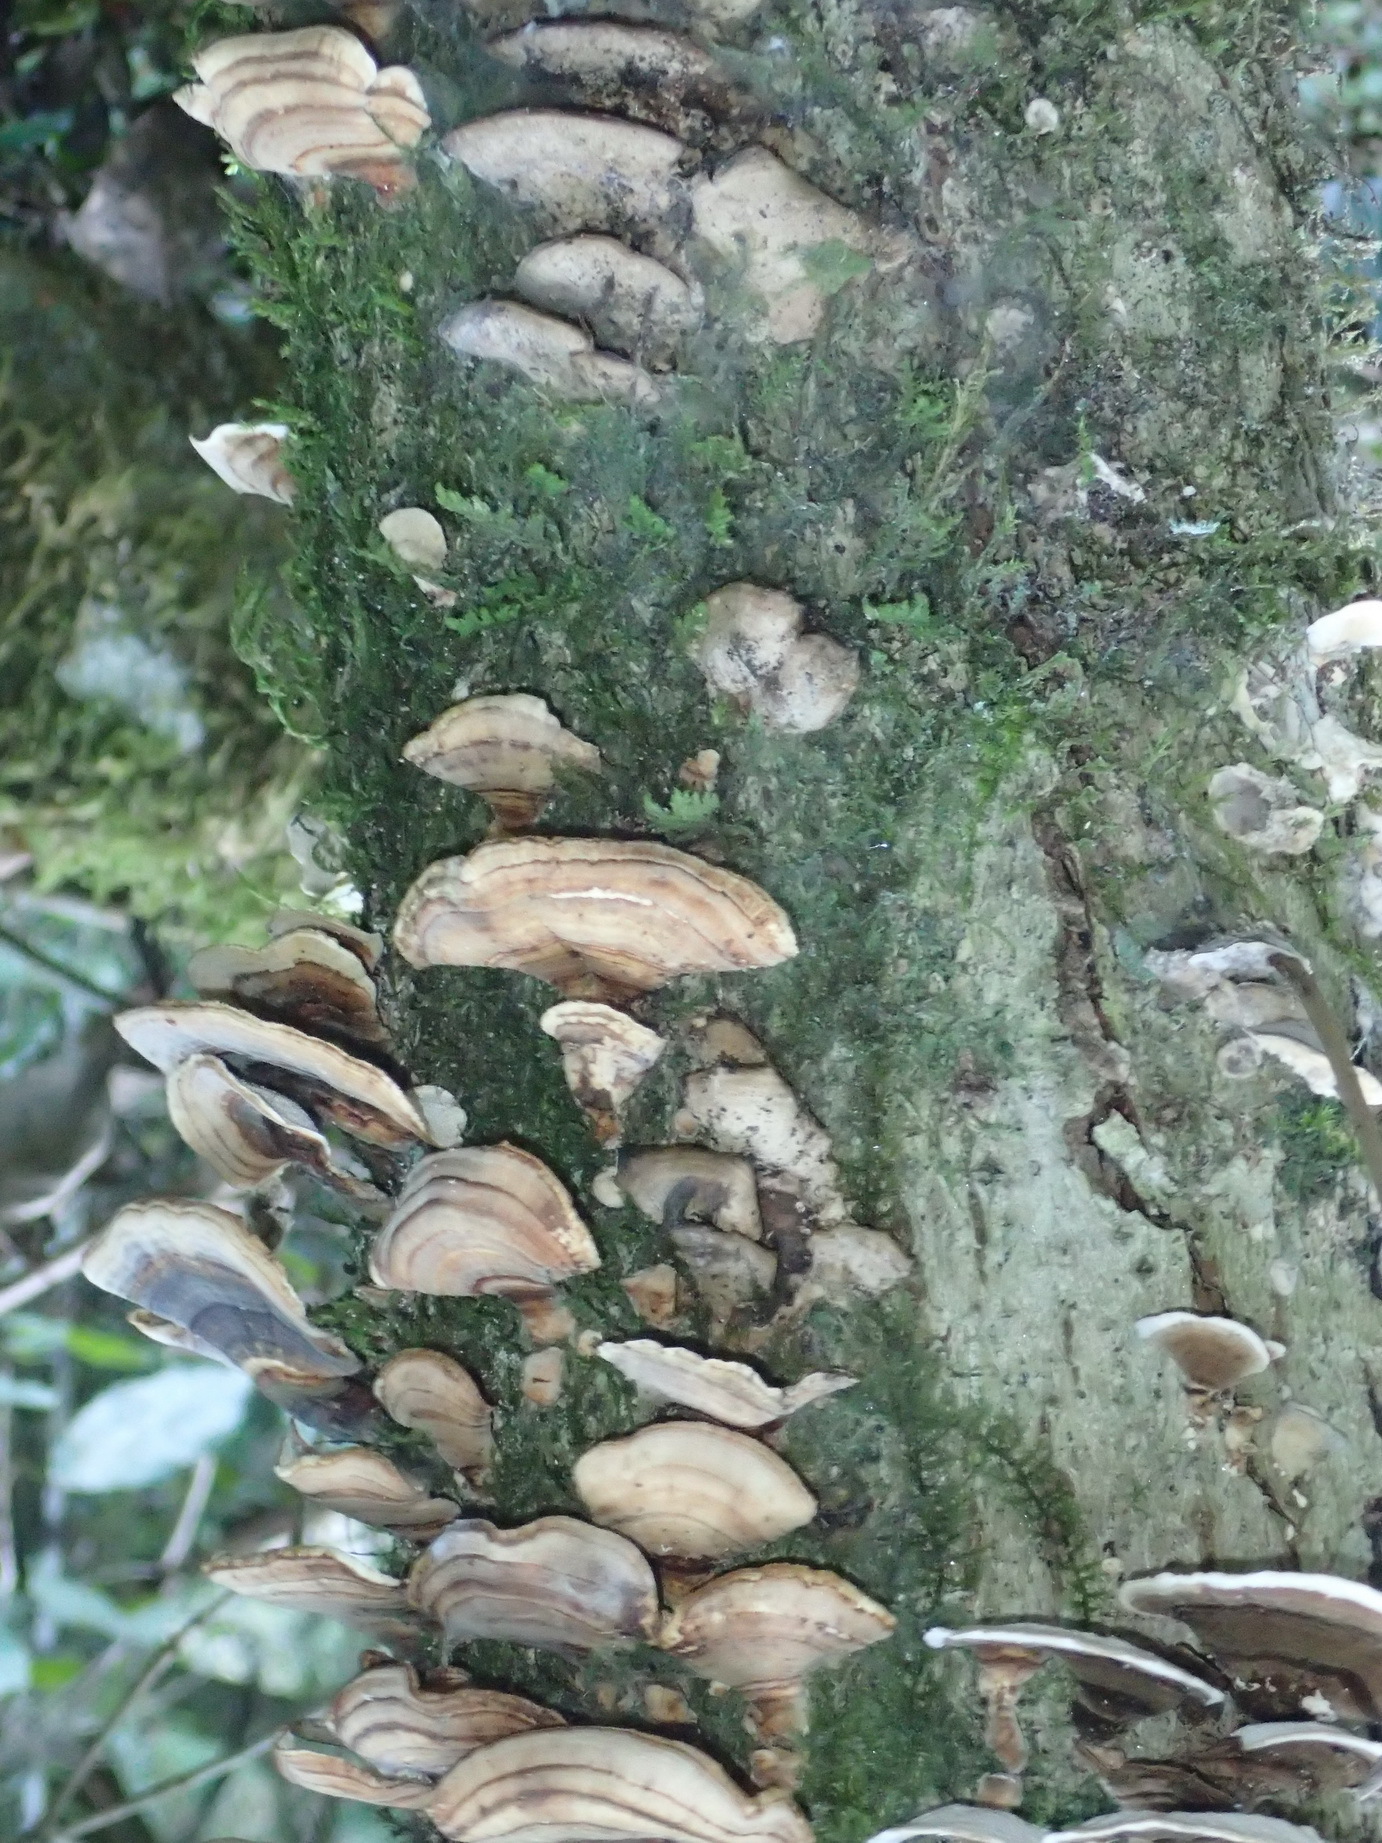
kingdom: Fungi
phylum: Basidiomycota
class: Agaricomycetes
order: Polyporales
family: Polyporaceae
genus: Trametes
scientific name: Trametes versicolor
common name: Turkeytail
